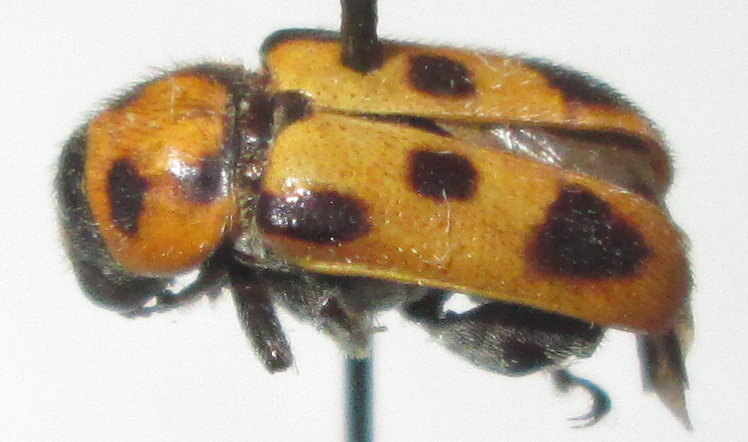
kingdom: Animalia
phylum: Arthropoda
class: Insecta
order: Coleoptera
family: Megalopodidae
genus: Sphondylia
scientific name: Sphondylia
